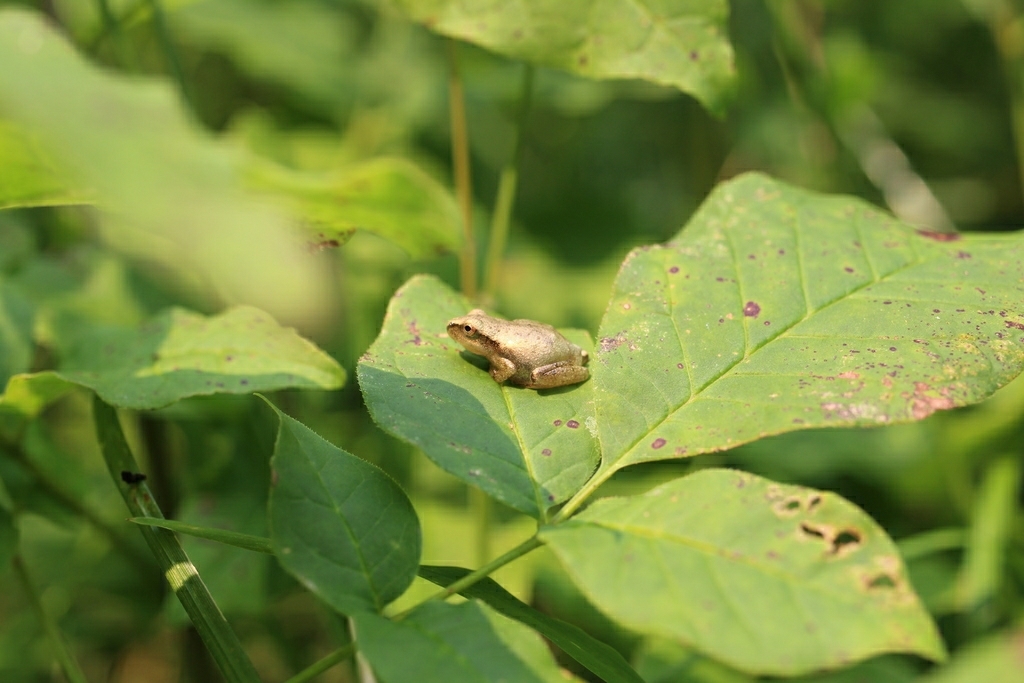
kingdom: Animalia
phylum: Chordata
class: Amphibia
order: Anura
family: Hylidae
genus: Pseudacris
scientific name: Pseudacris crucifer
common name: Spring peeper
